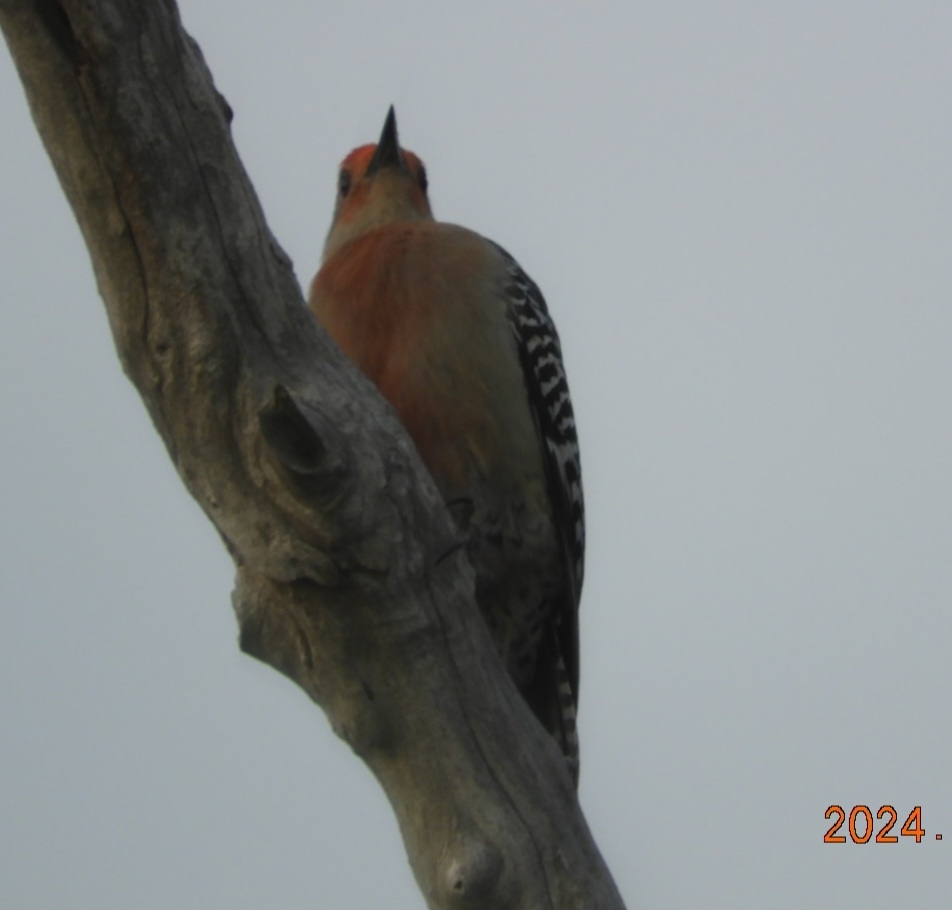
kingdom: Animalia
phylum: Chordata
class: Aves
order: Piciformes
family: Picidae
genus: Melanerpes
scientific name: Melanerpes carolinus
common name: Red-bellied woodpecker
